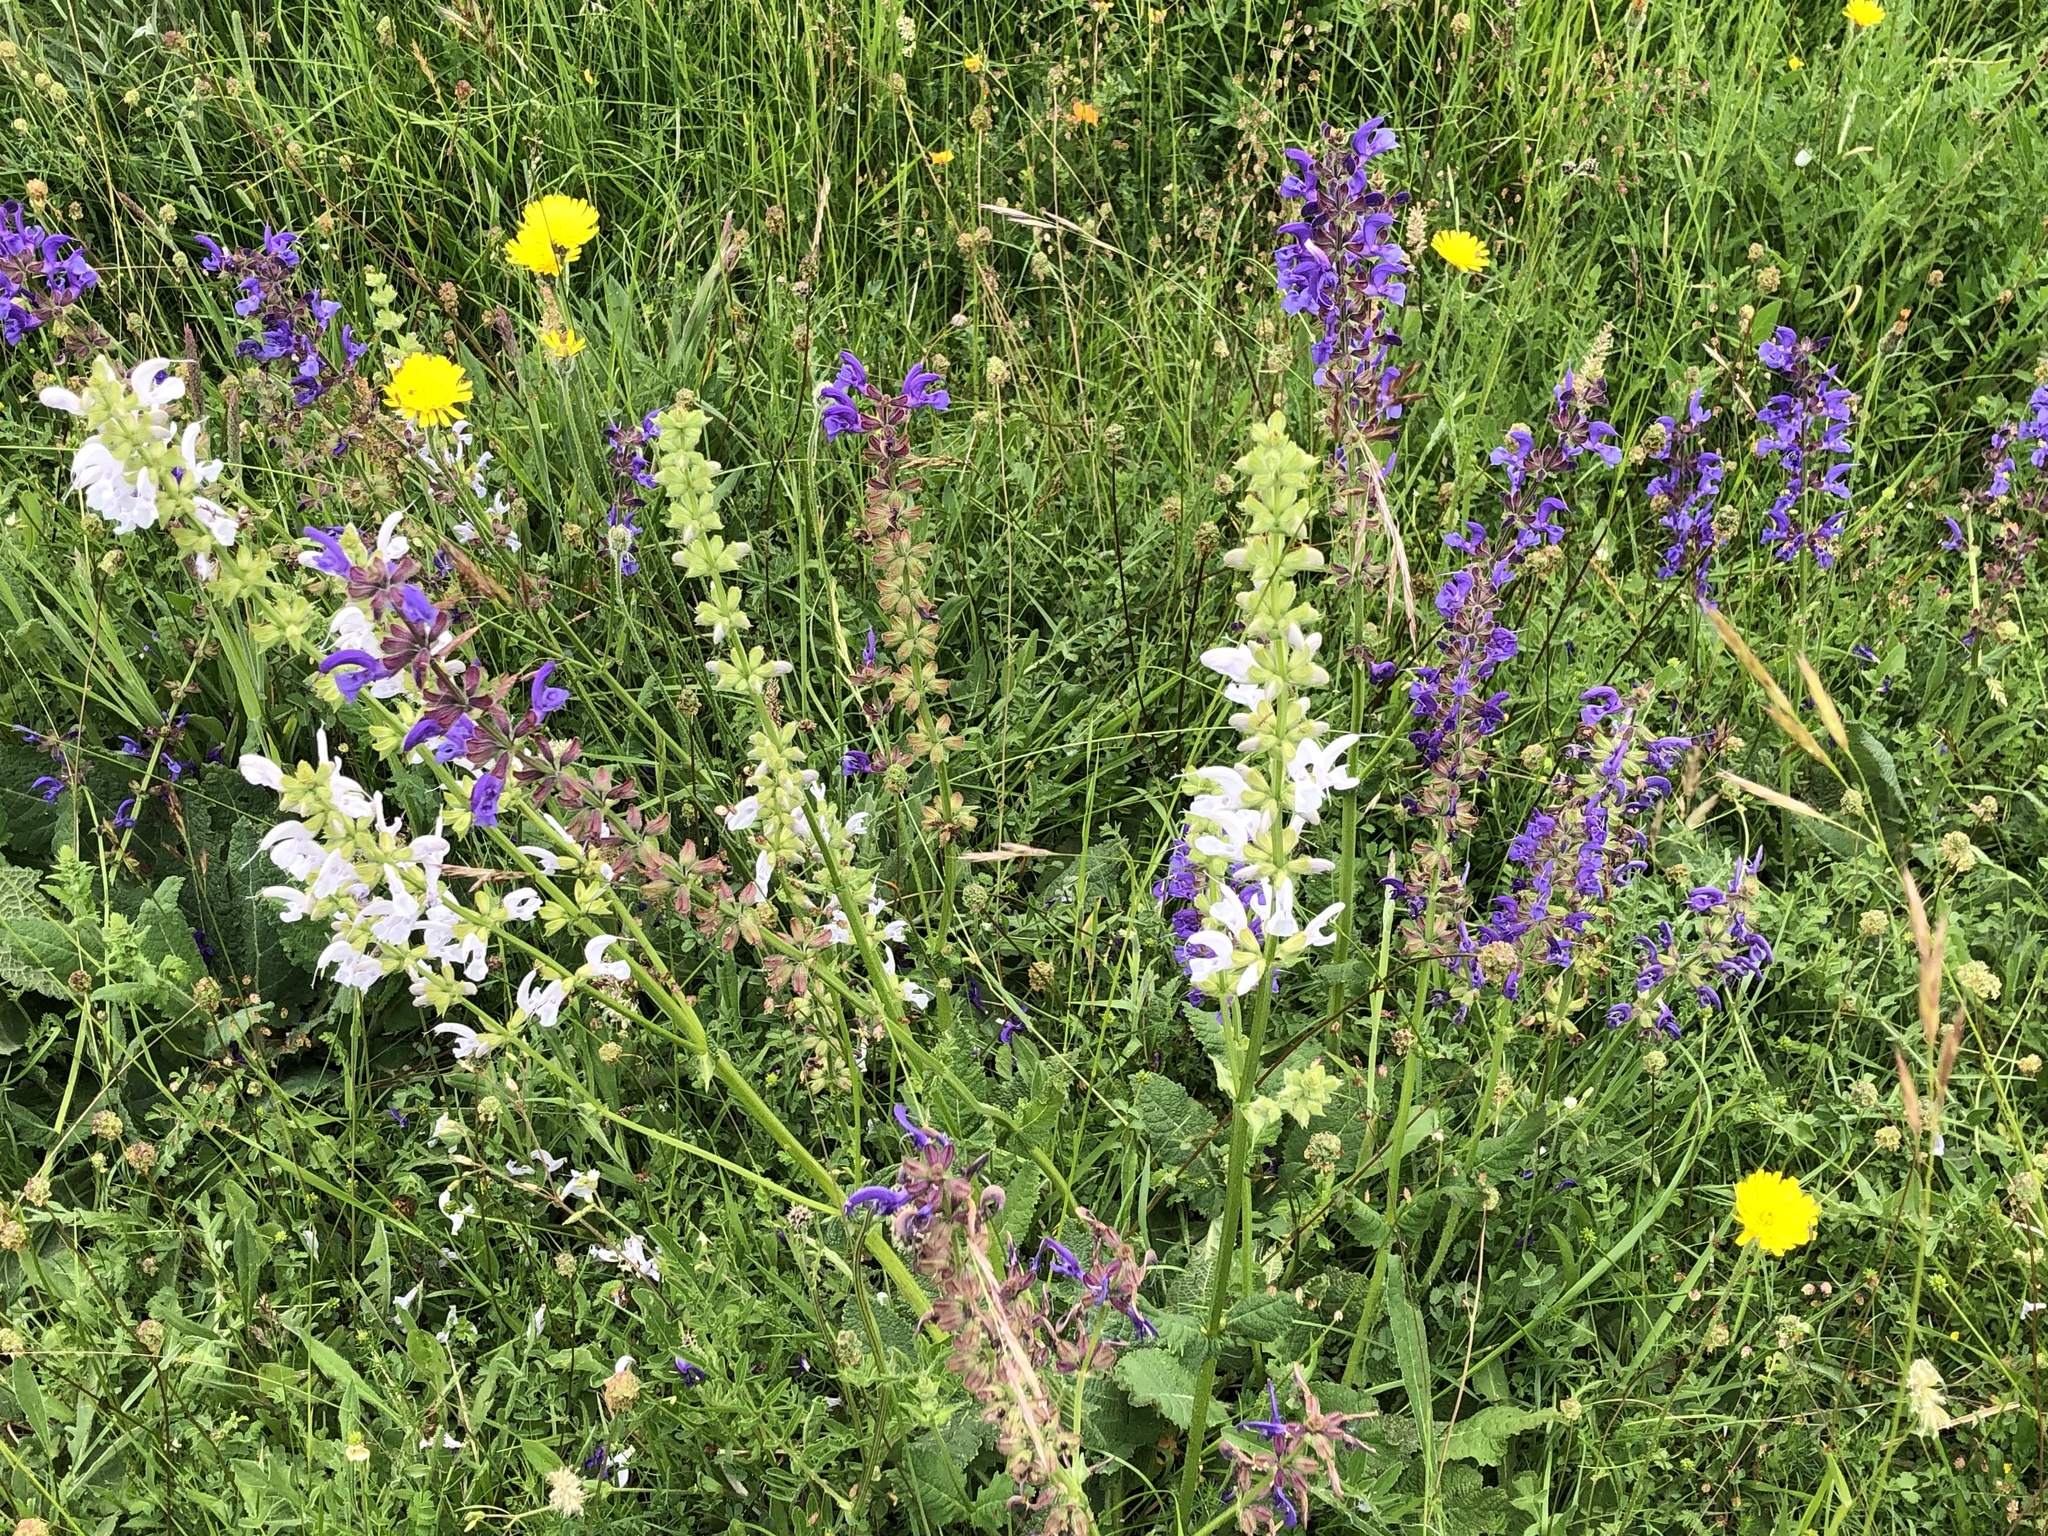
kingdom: Plantae
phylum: Tracheophyta
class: Magnoliopsida
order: Lamiales
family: Lamiaceae
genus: Salvia
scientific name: Salvia pratensis
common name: Meadow sage
